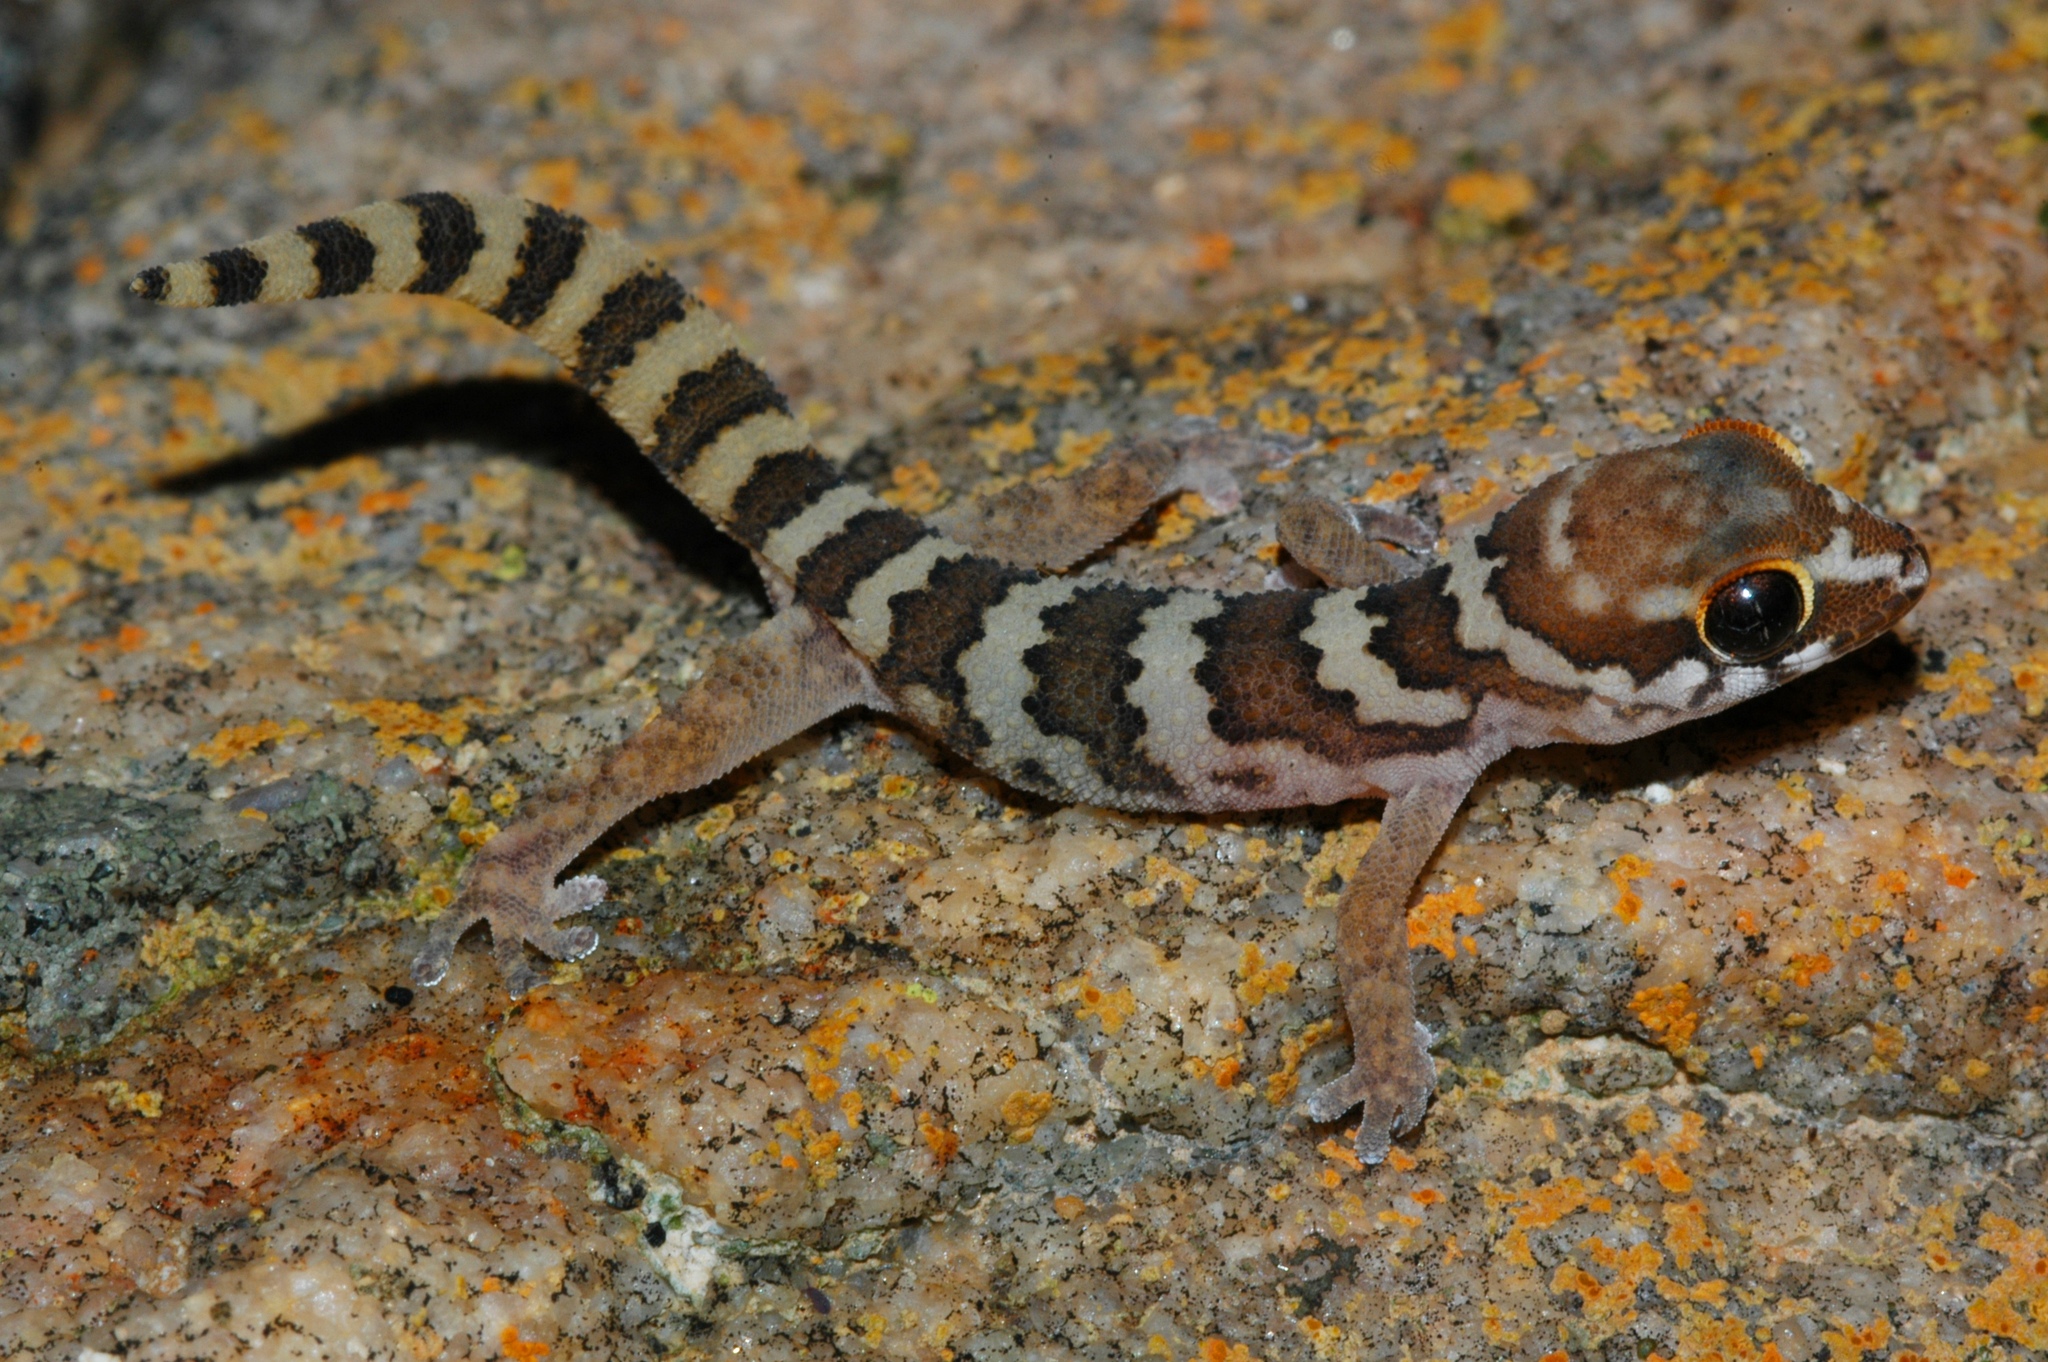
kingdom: Animalia
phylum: Chordata
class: Squamata
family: Gekkonidae
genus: Pachydactylus
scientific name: Pachydactylus formosus
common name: Southern rough gecko
